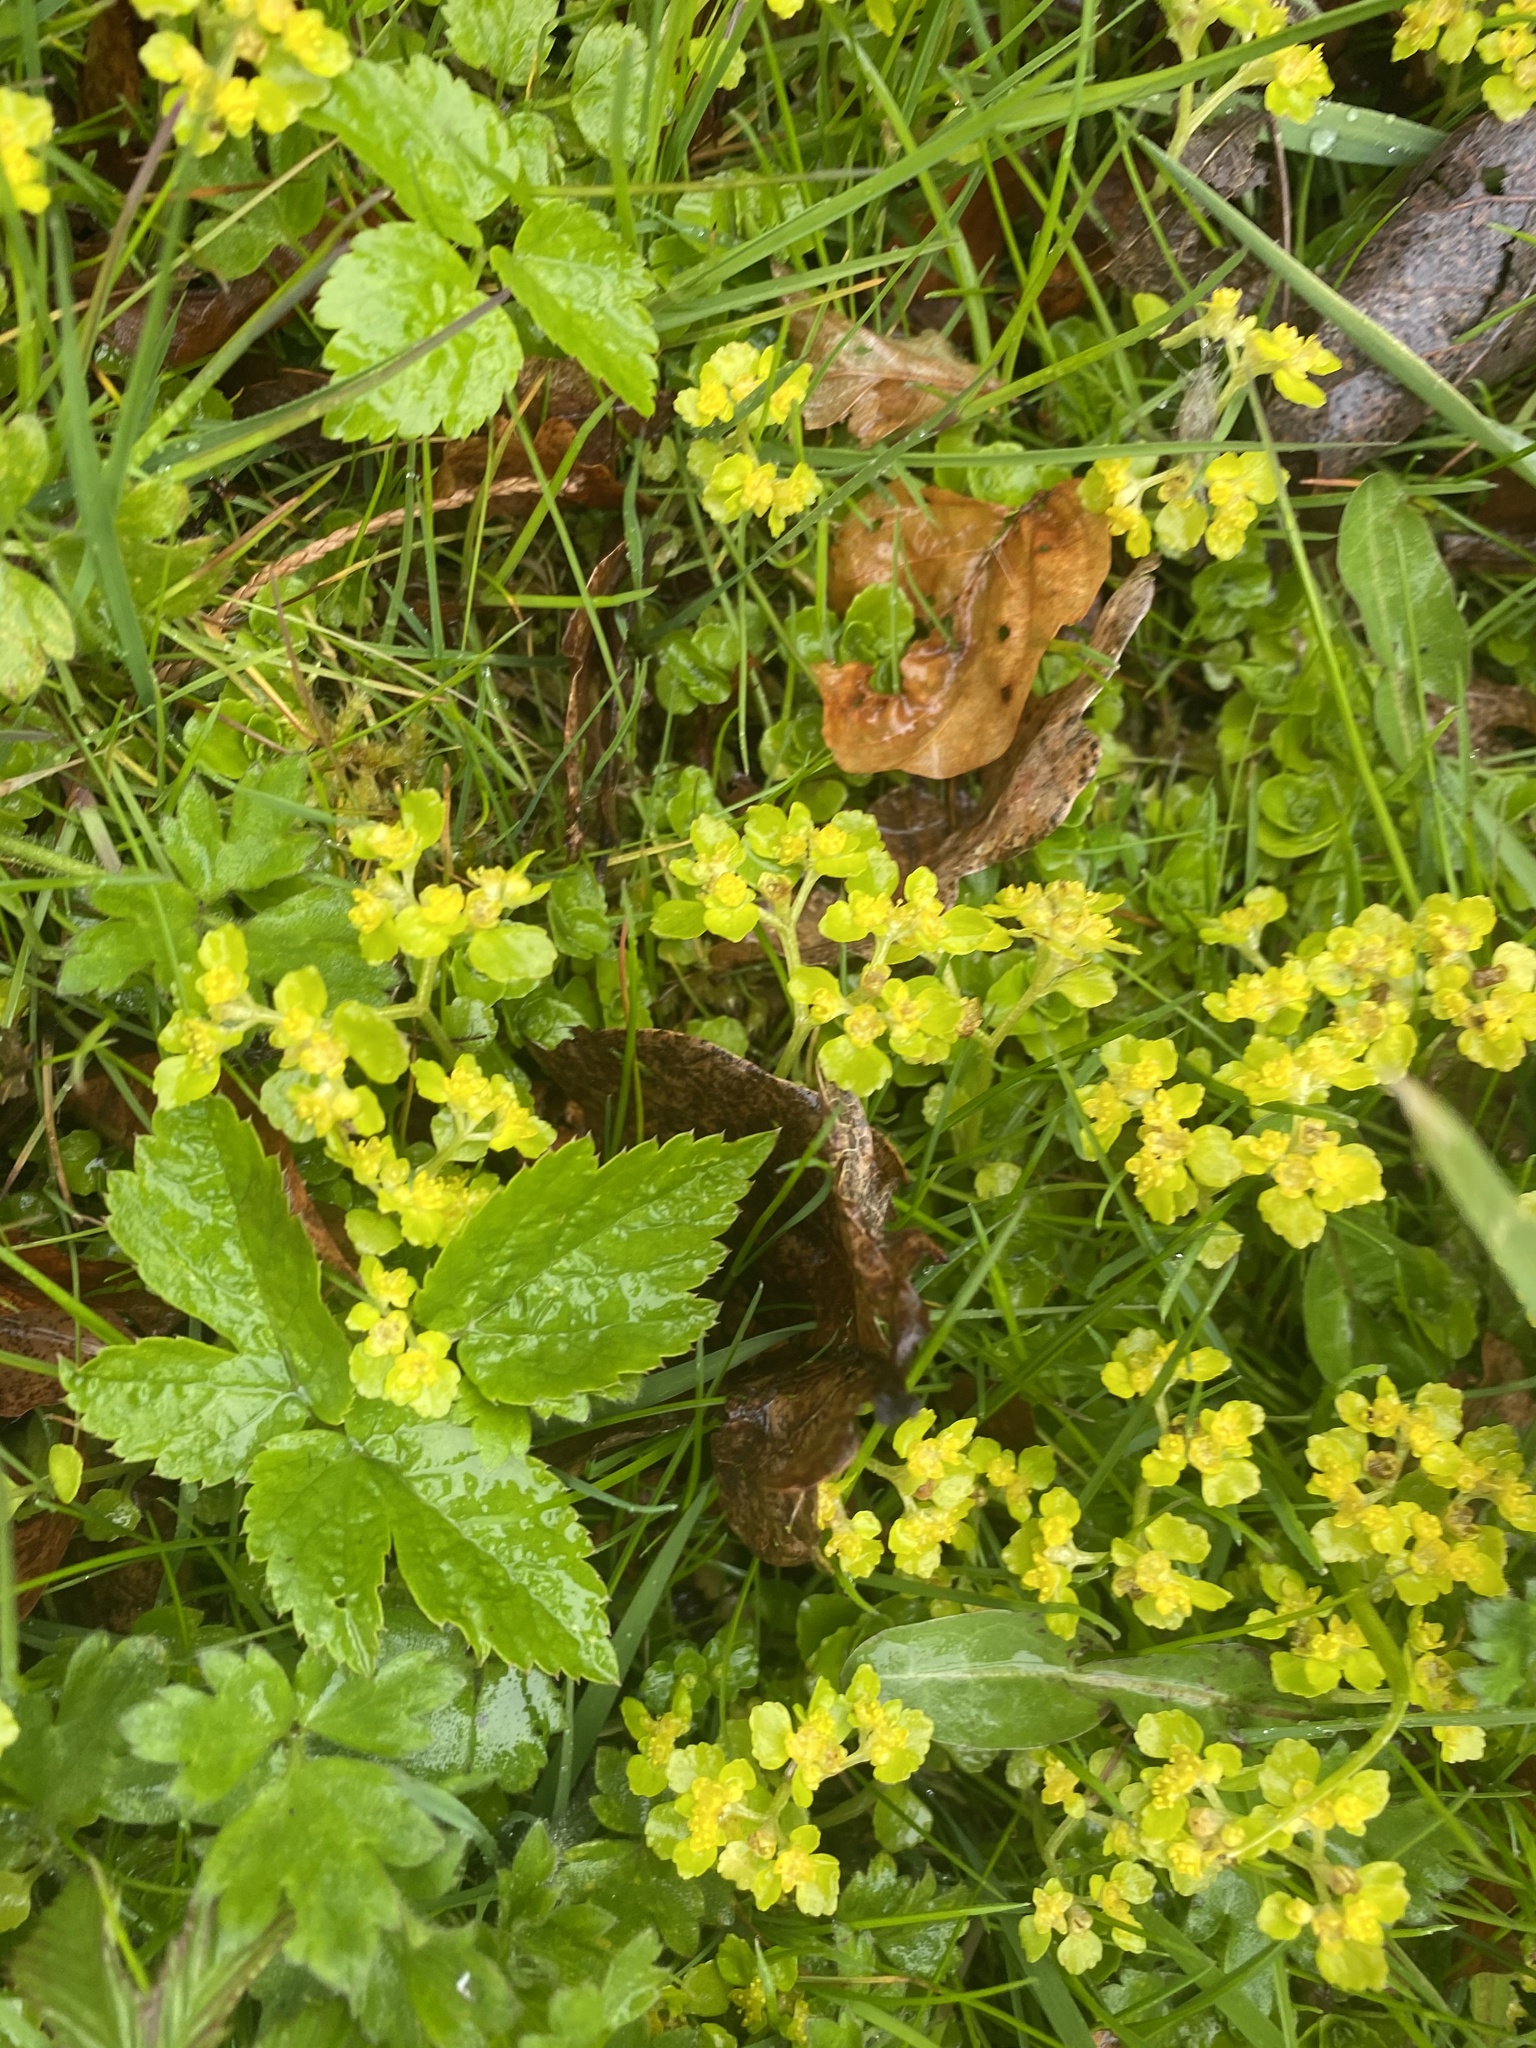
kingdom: Plantae
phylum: Tracheophyta
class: Magnoliopsida
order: Saxifragales
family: Saxifragaceae
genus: Chrysosplenium
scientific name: Chrysosplenium oppositifolium
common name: Opposite-leaved golden-saxifrage
